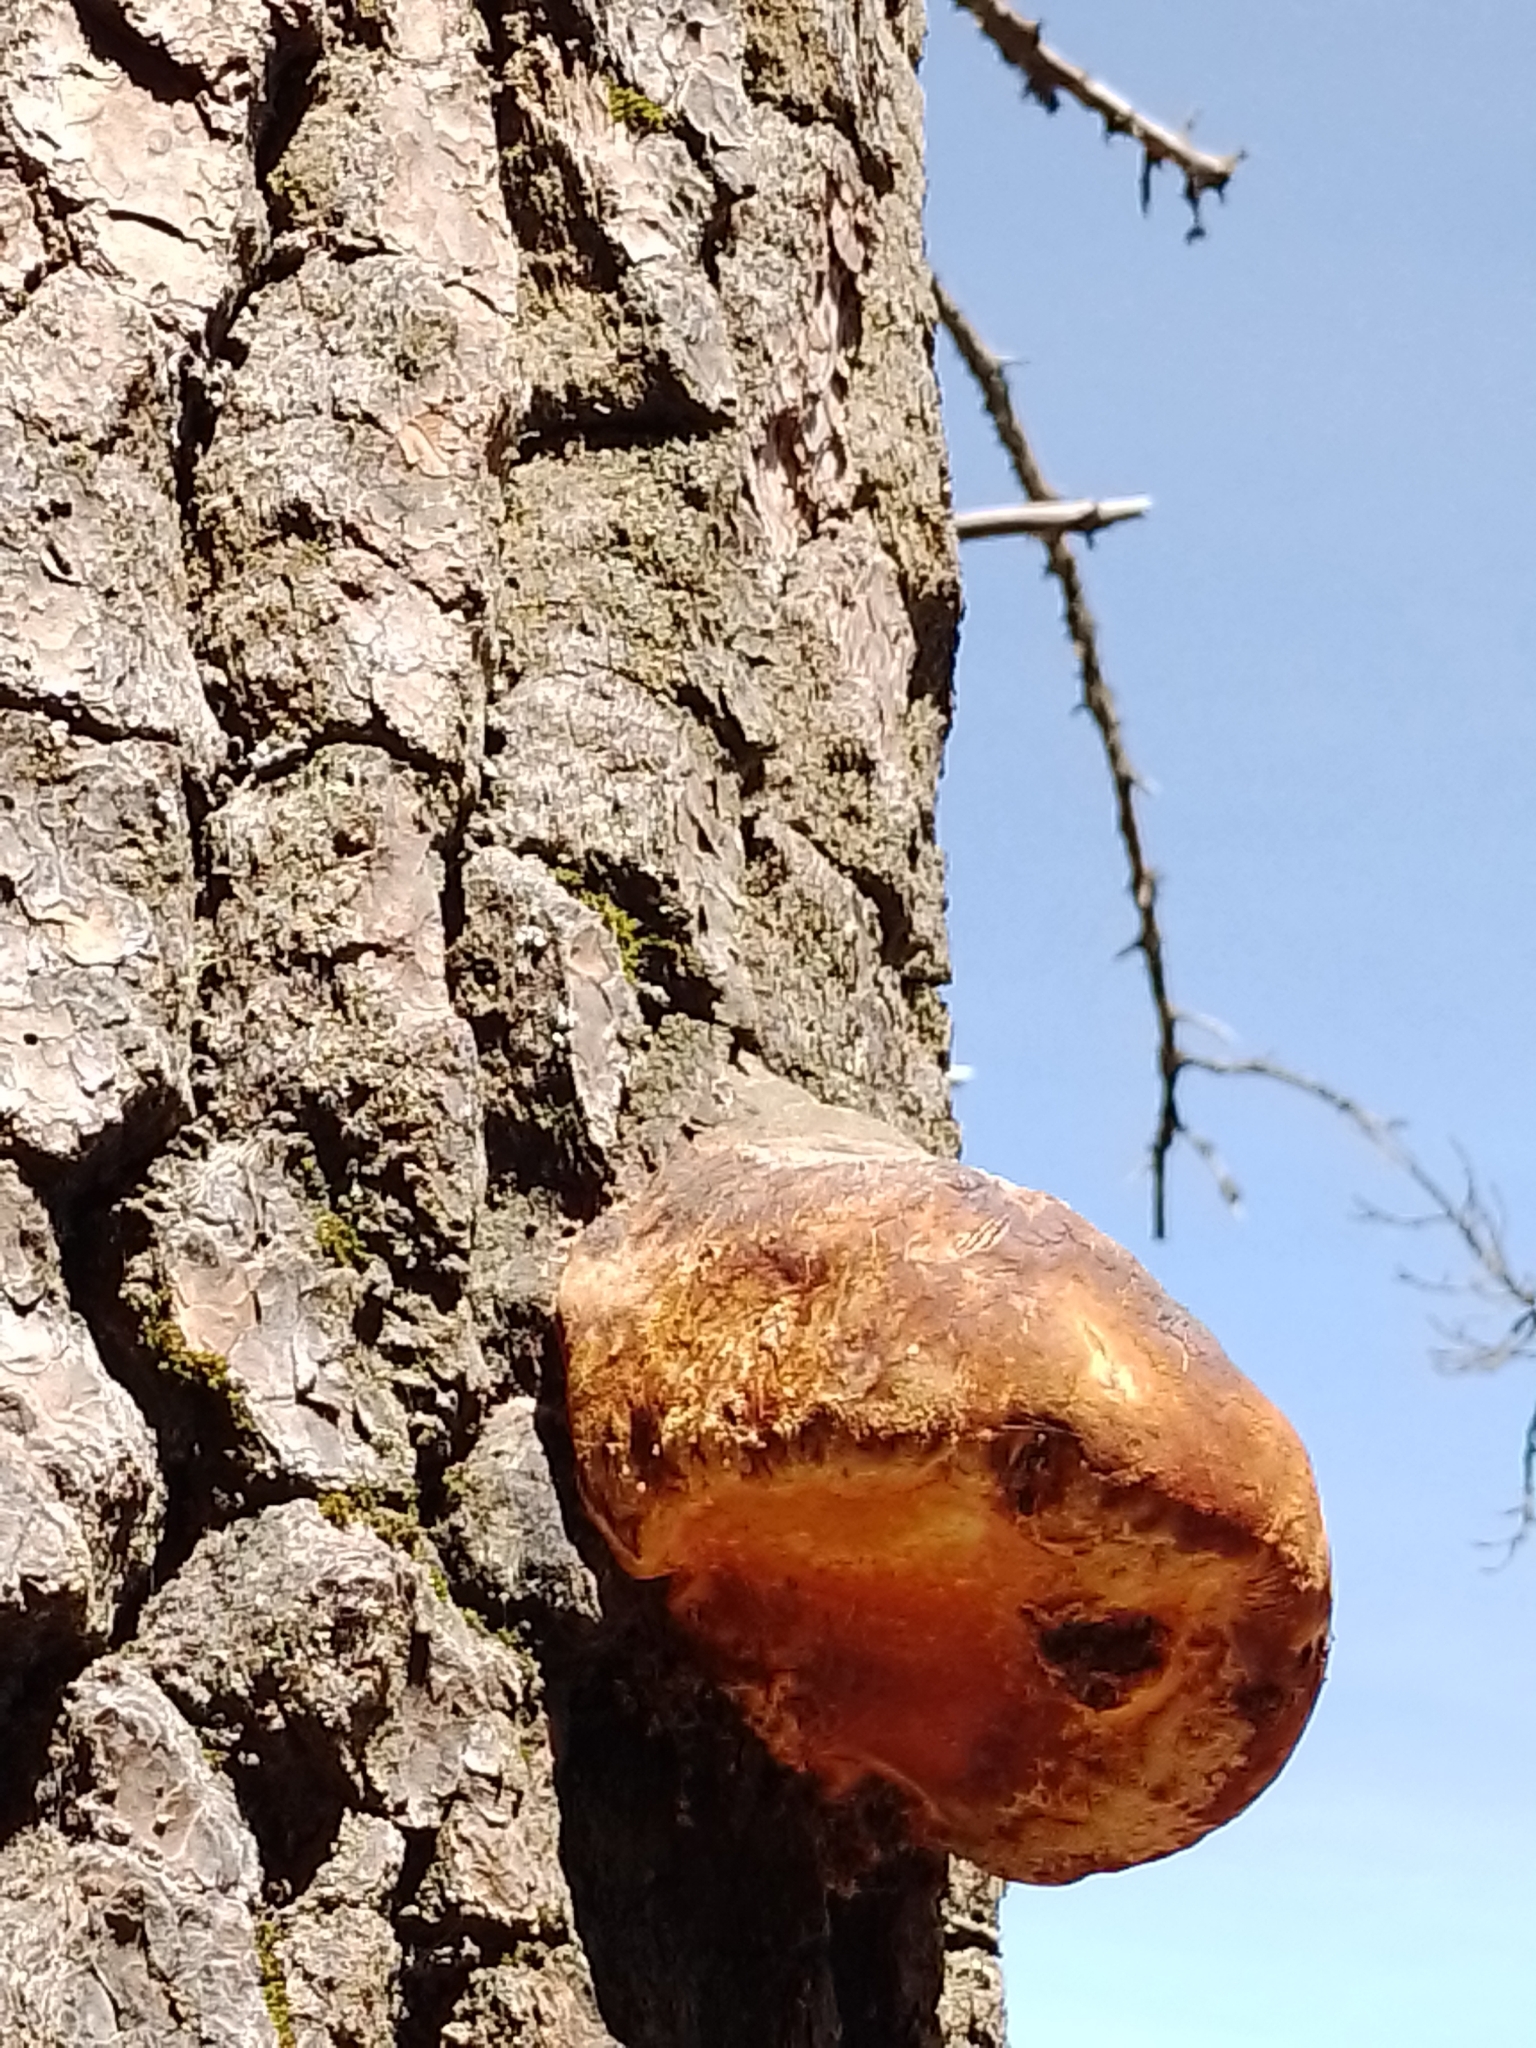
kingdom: Fungi
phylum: Basidiomycota
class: Agaricomycetes
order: Polyporales
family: Fomitopsidaceae
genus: Fomitopsis
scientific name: Fomitopsis schrenkii
